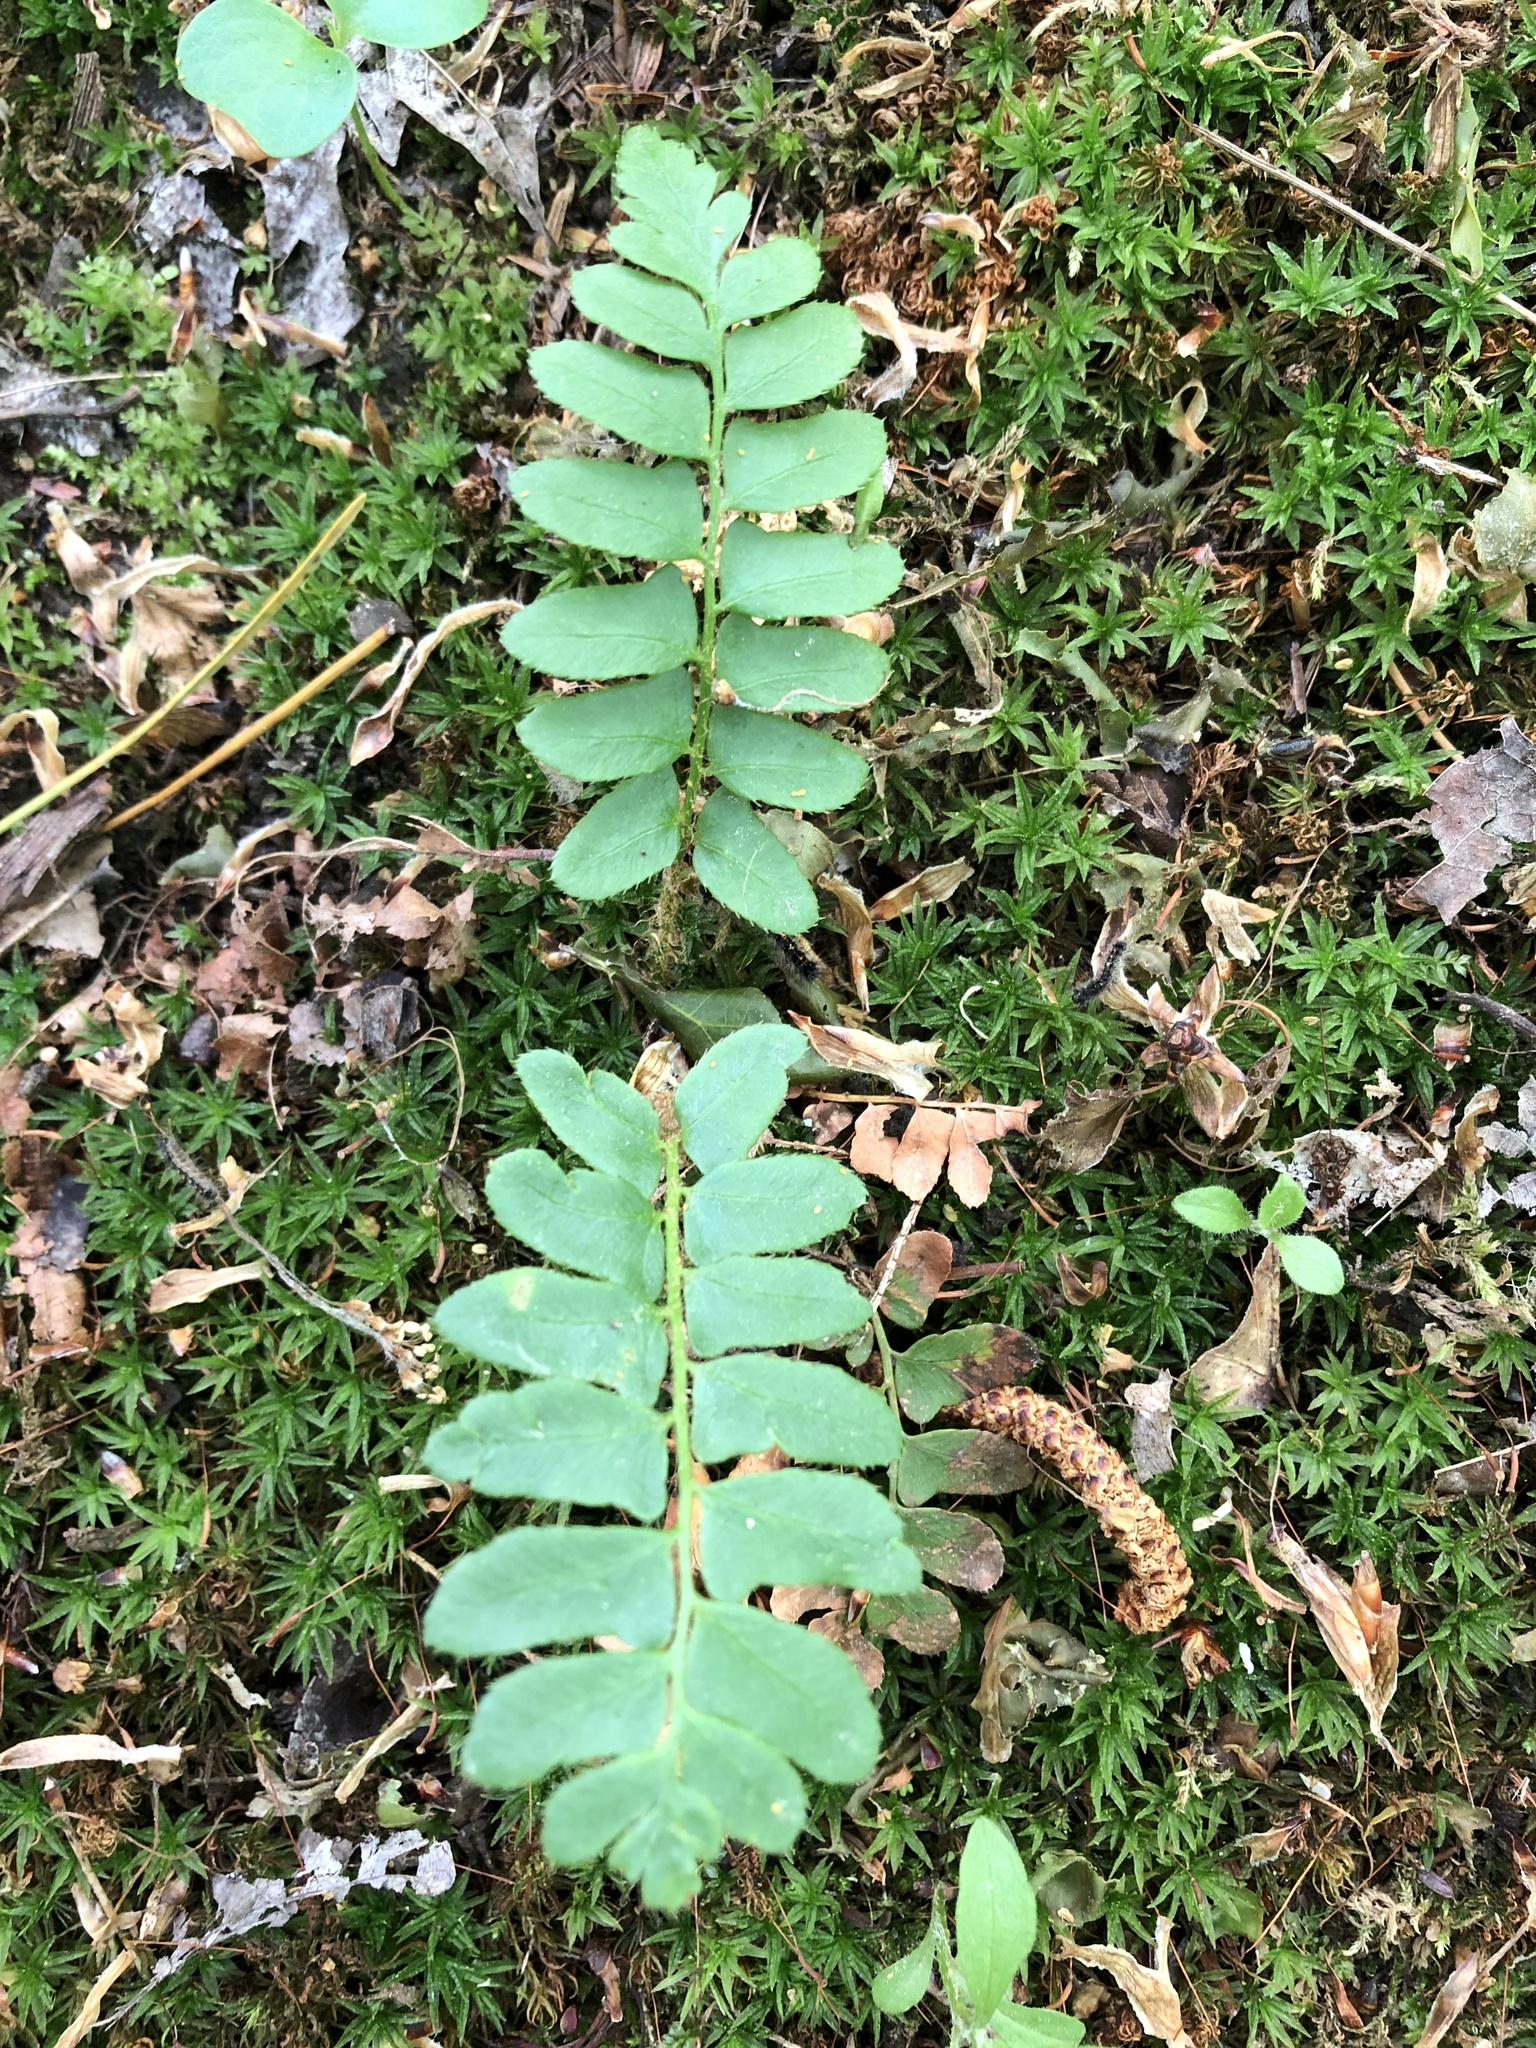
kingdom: Plantae
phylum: Tracheophyta
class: Polypodiopsida
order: Polypodiales
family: Dryopteridaceae
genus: Polystichum
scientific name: Polystichum acrostichoides
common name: Christmas fern
